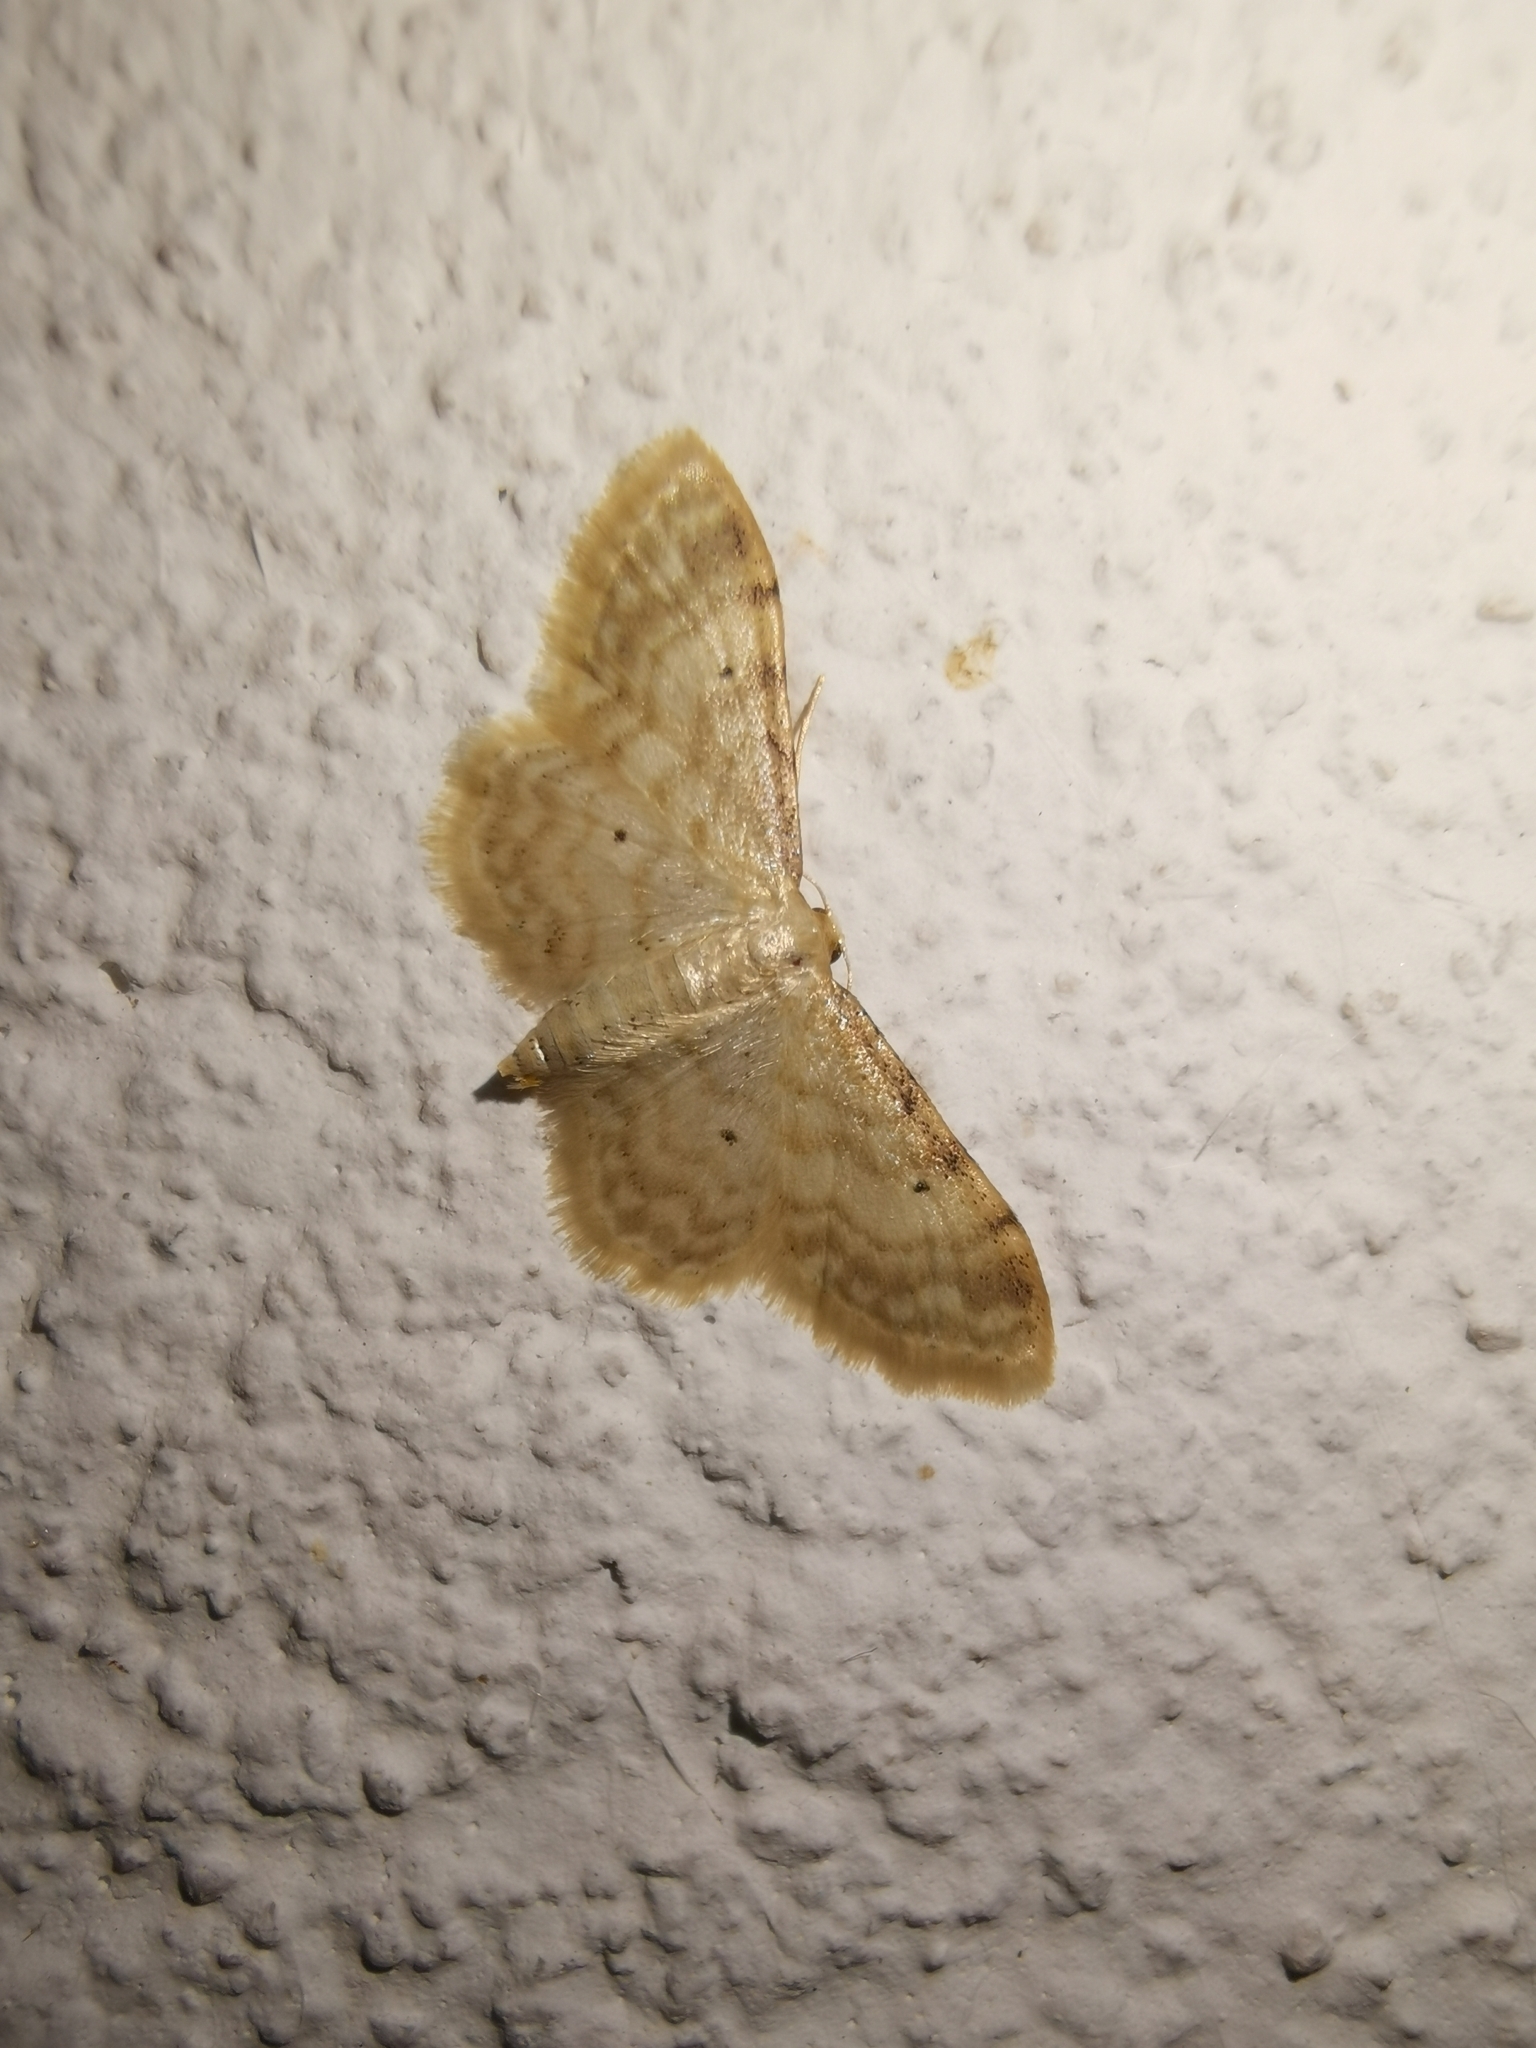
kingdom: Animalia
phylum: Arthropoda
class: Insecta
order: Lepidoptera
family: Geometridae
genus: Idaea
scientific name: Idaea fuscovenosa
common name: Dwarf cream wave
